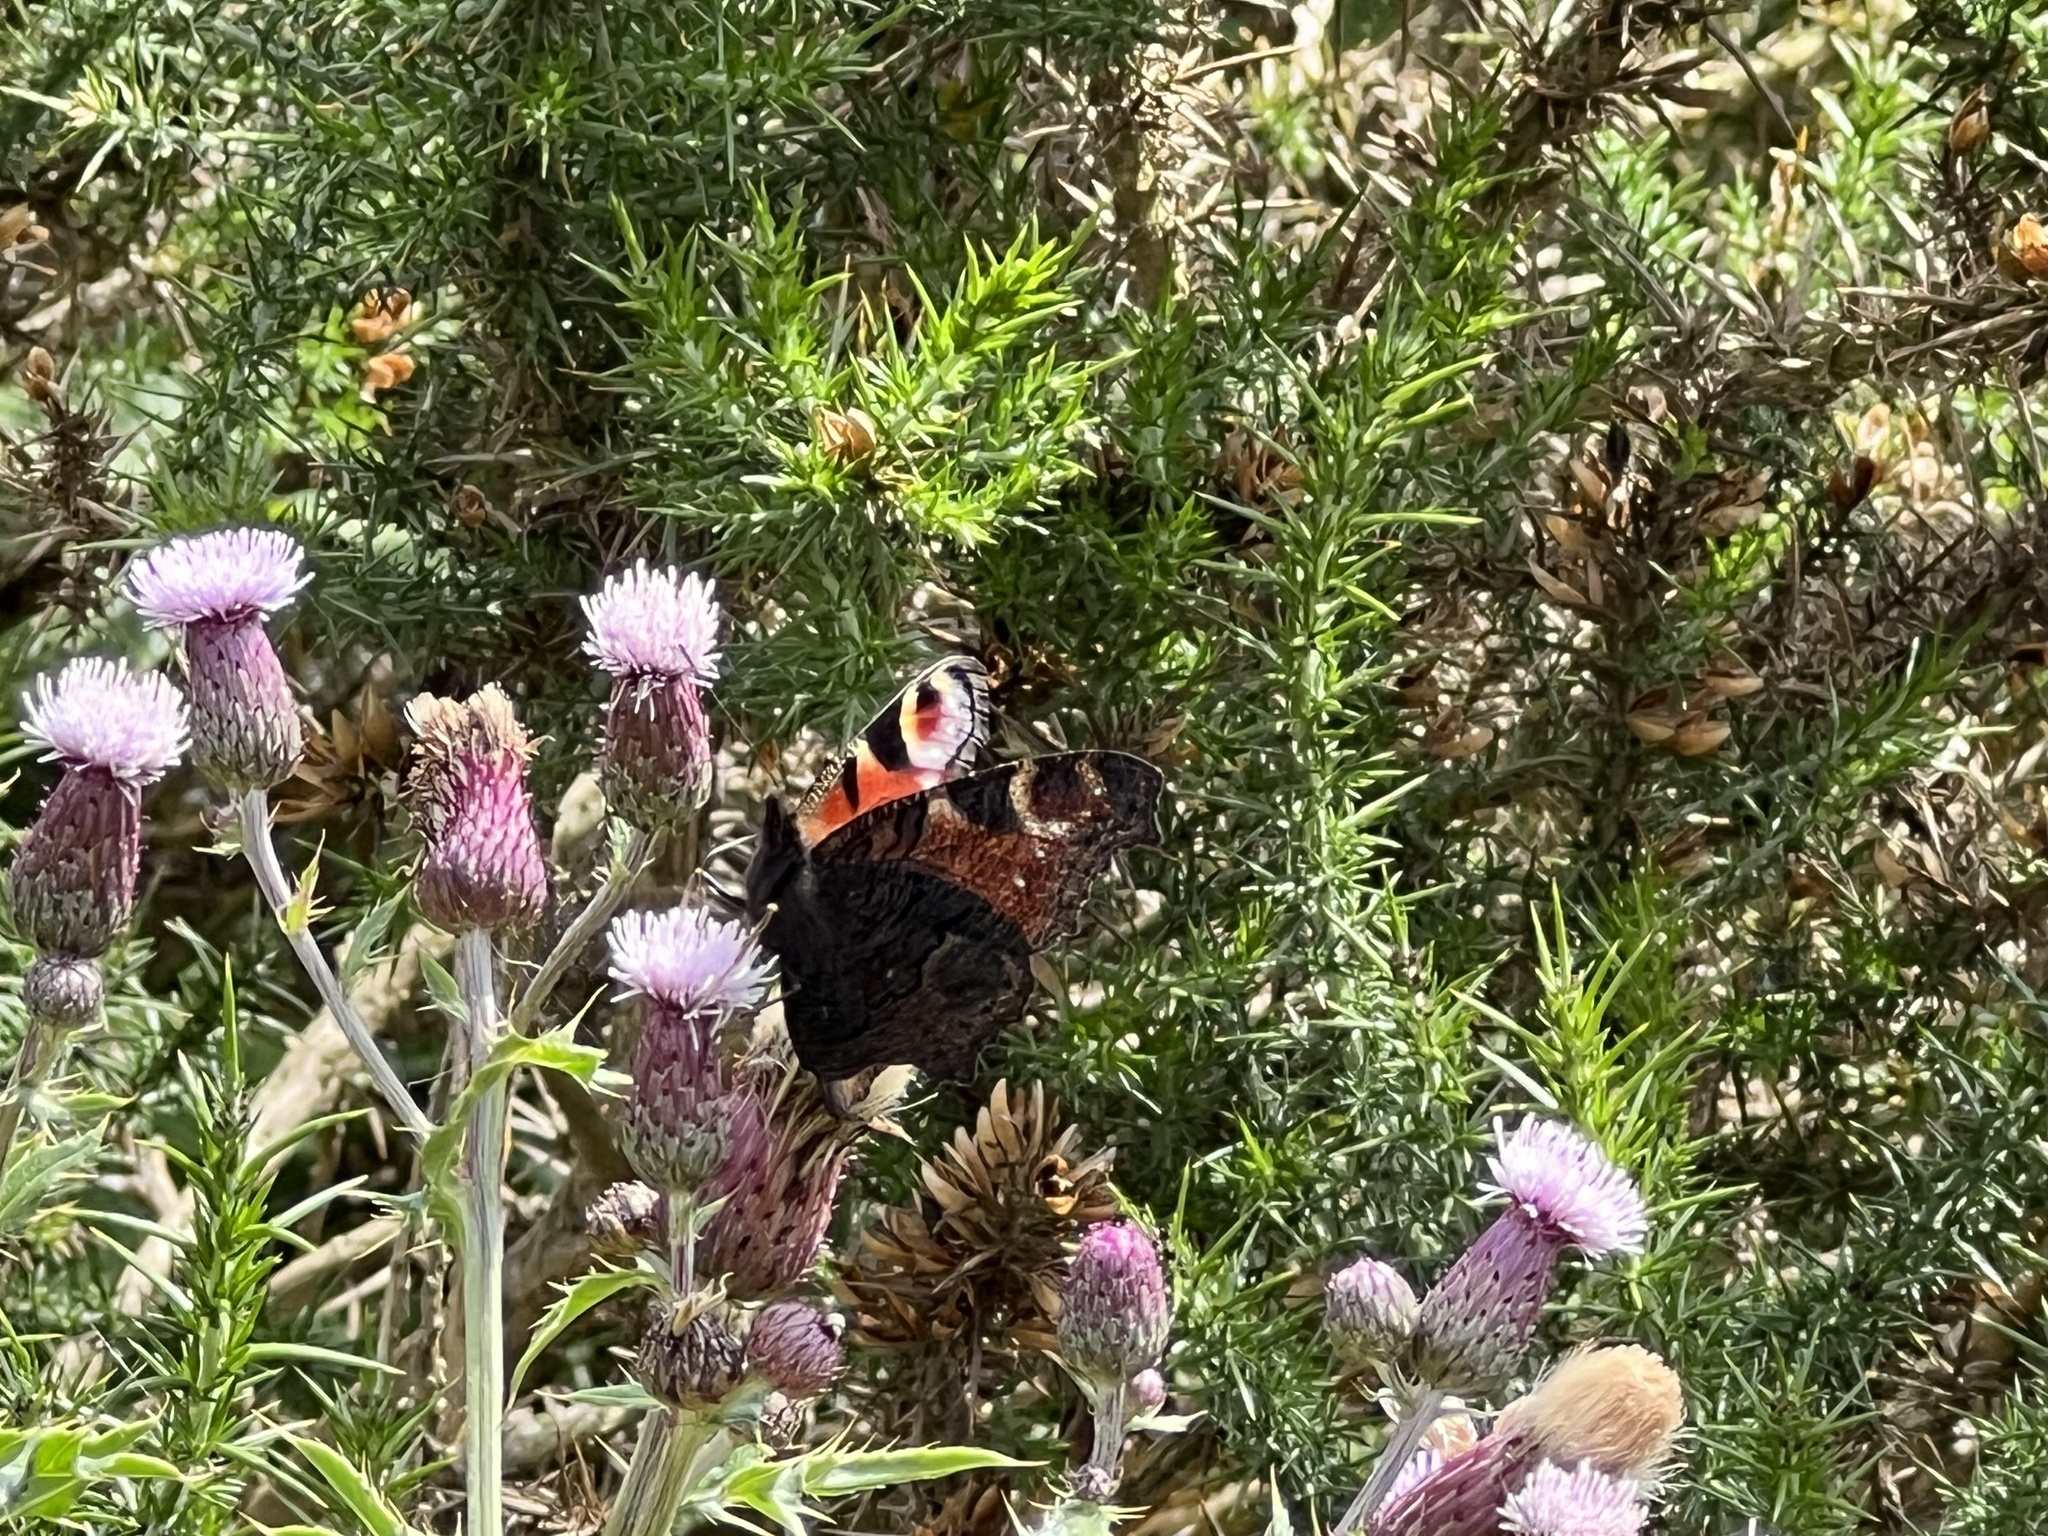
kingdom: Animalia
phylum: Arthropoda
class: Insecta
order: Lepidoptera
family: Nymphalidae
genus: Aglais
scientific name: Aglais io
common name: Peacock
